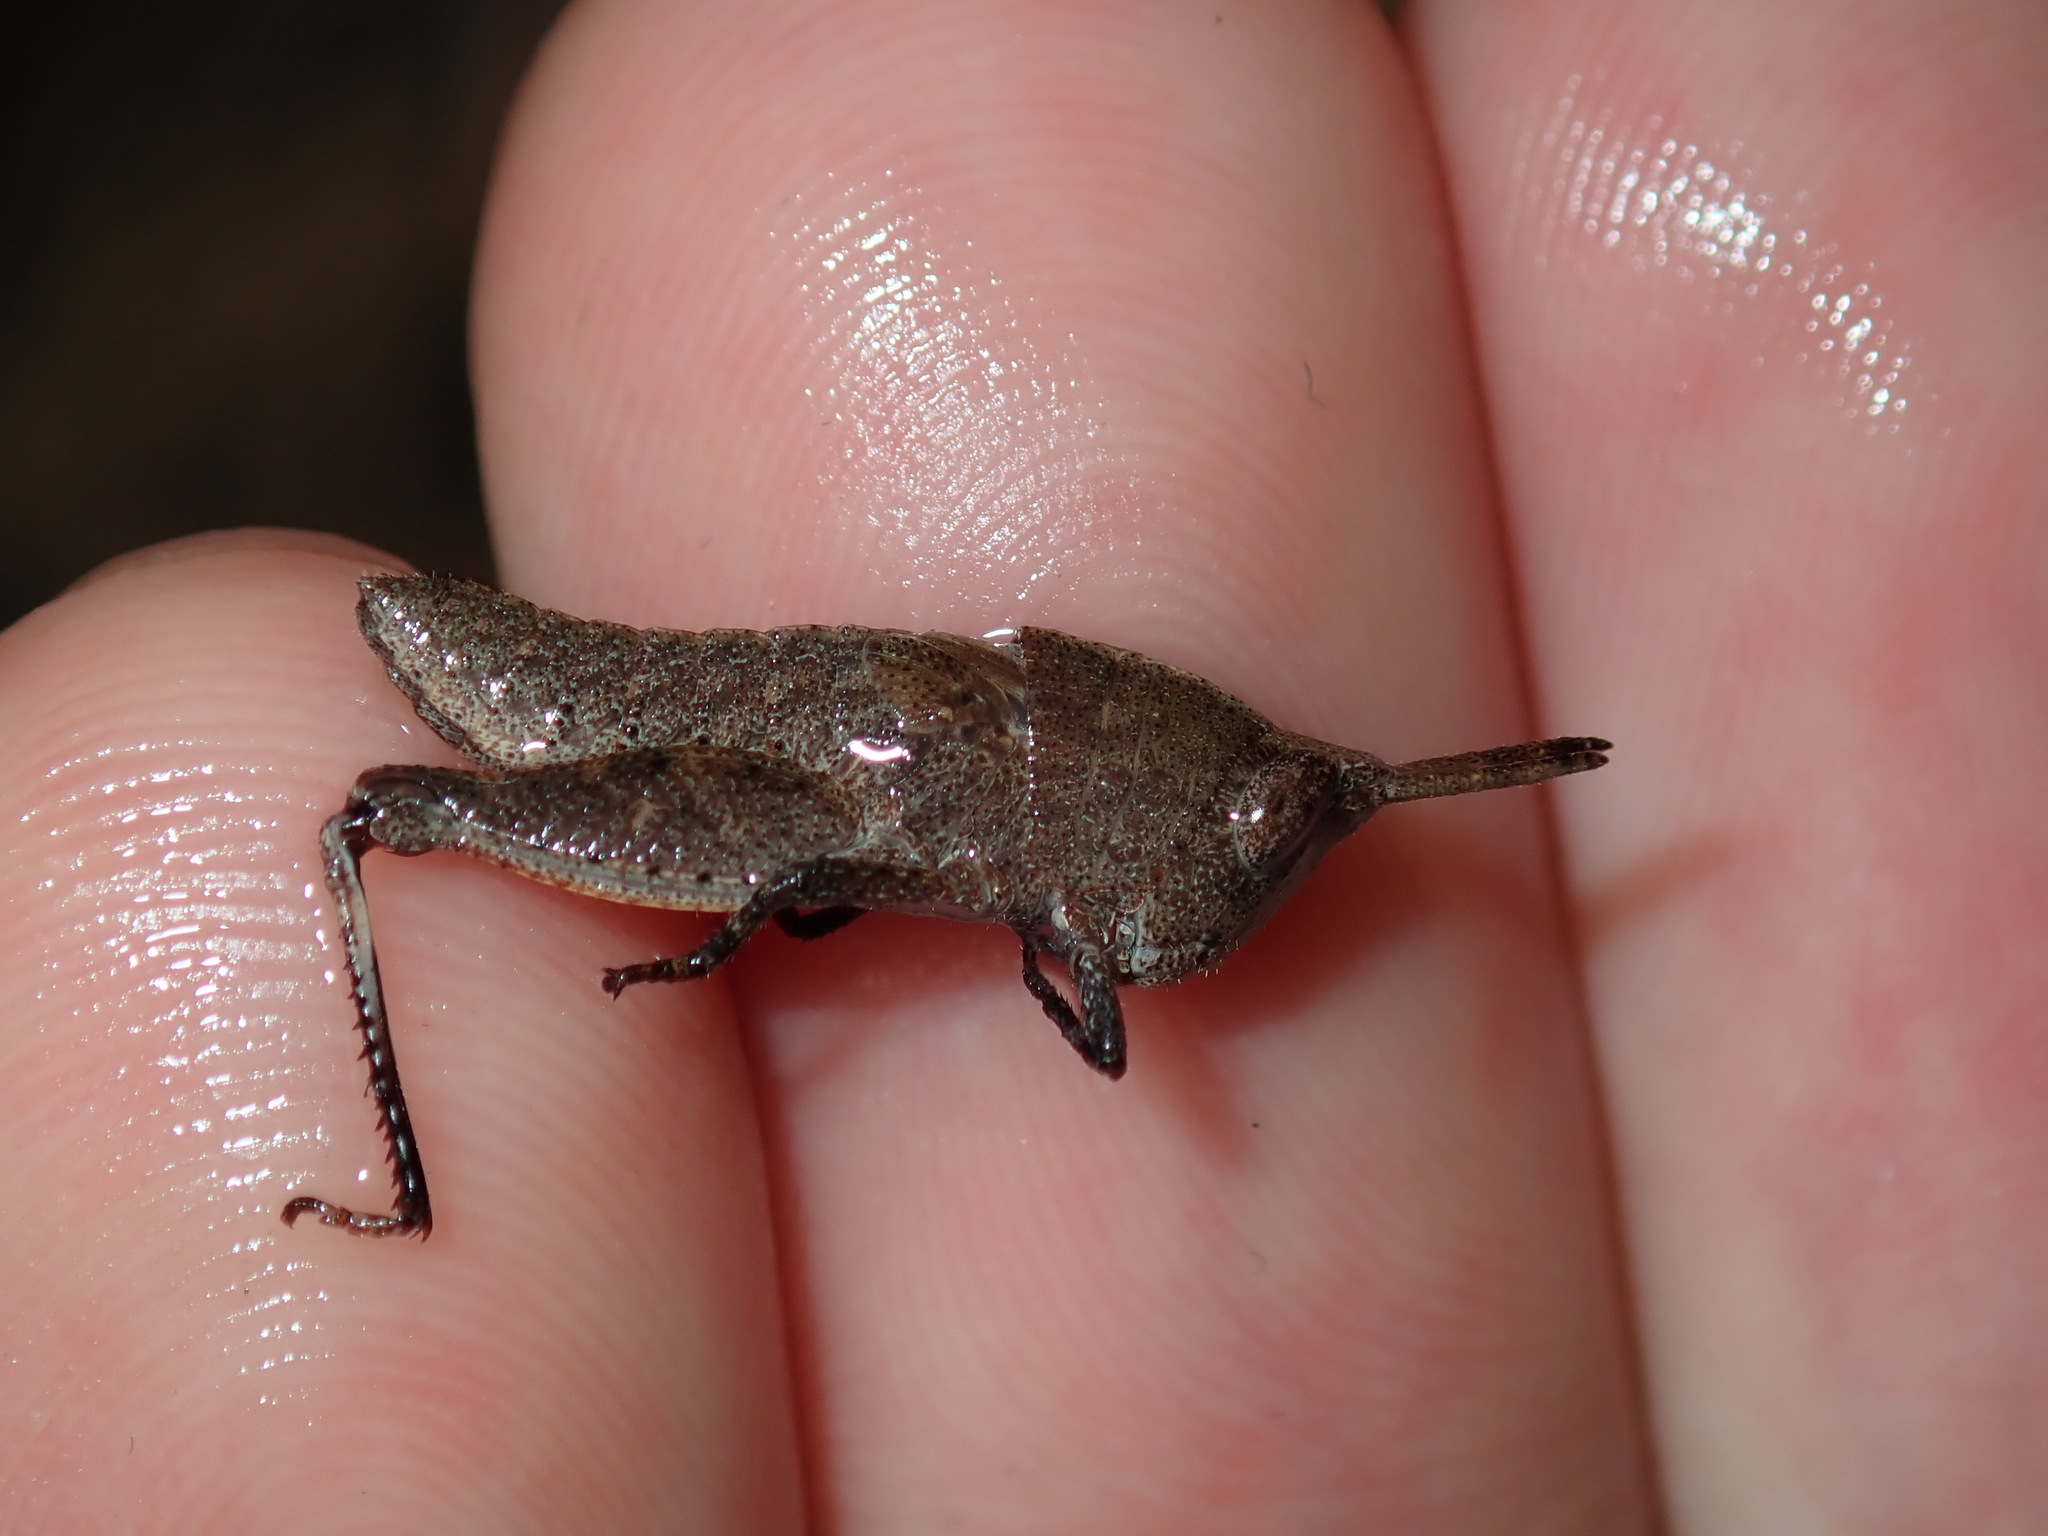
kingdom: Animalia
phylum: Arthropoda
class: Insecta
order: Orthoptera
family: Acrididae
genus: Goniaea
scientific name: Goniaea opomaloides
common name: Mimetic gumleaf grasshopper
